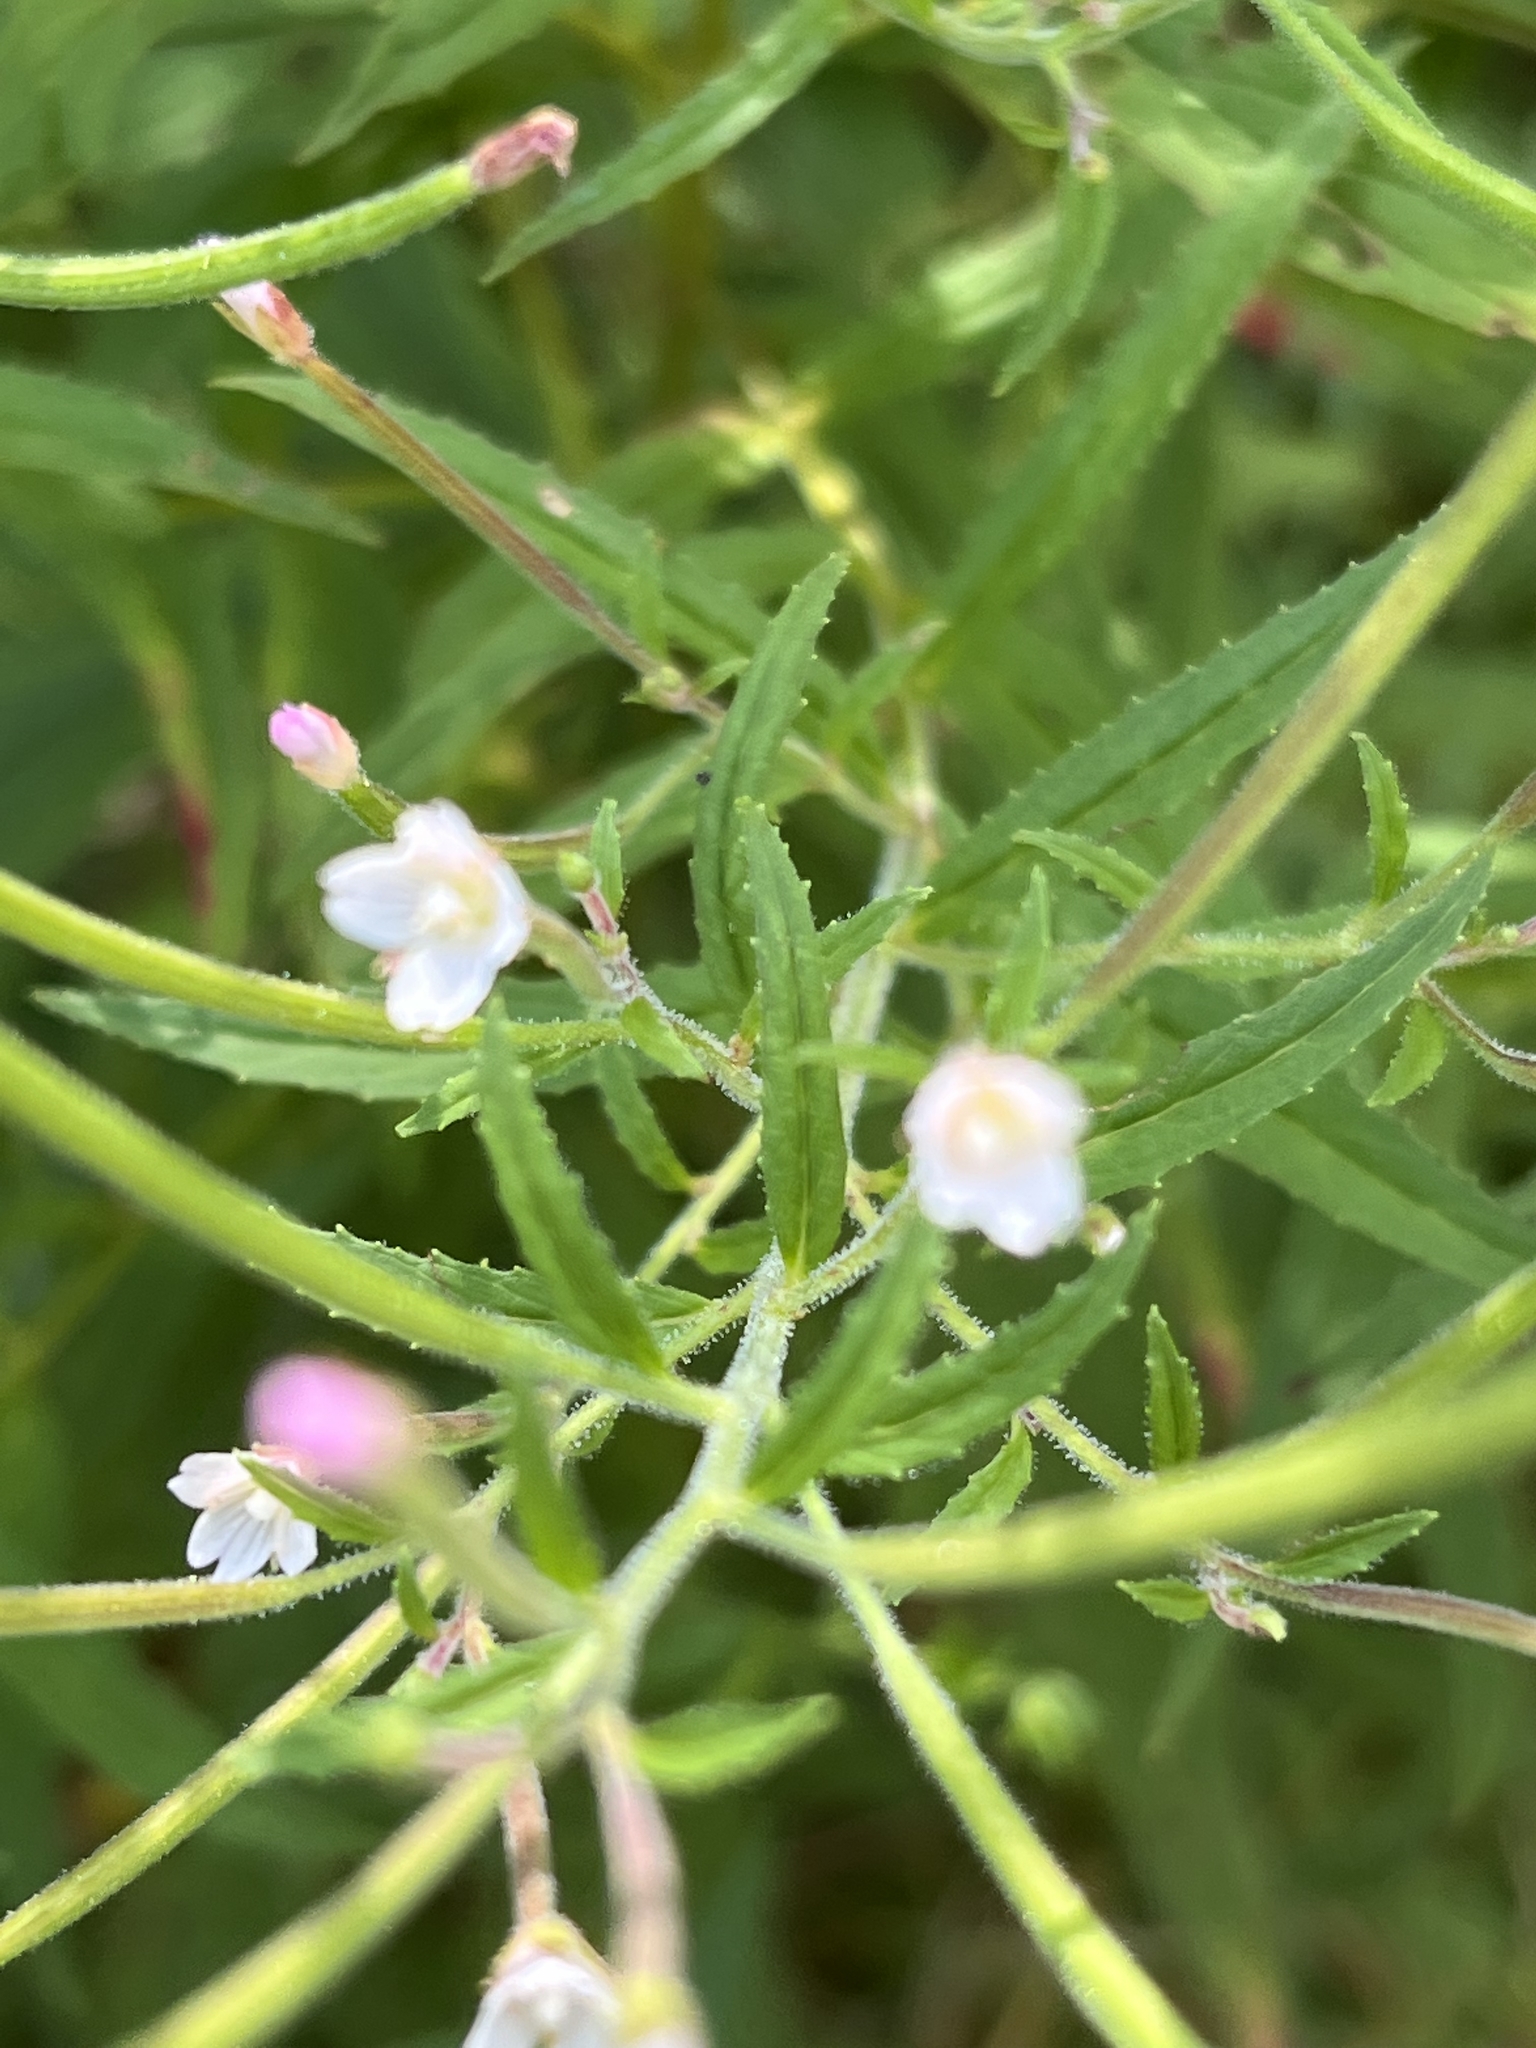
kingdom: Plantae
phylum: Tracheophyta
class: Magnoliopsida
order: Myrtales
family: Onagraceae
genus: Epilobium
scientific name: Epilobium coloratum
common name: Bronze willowherb
